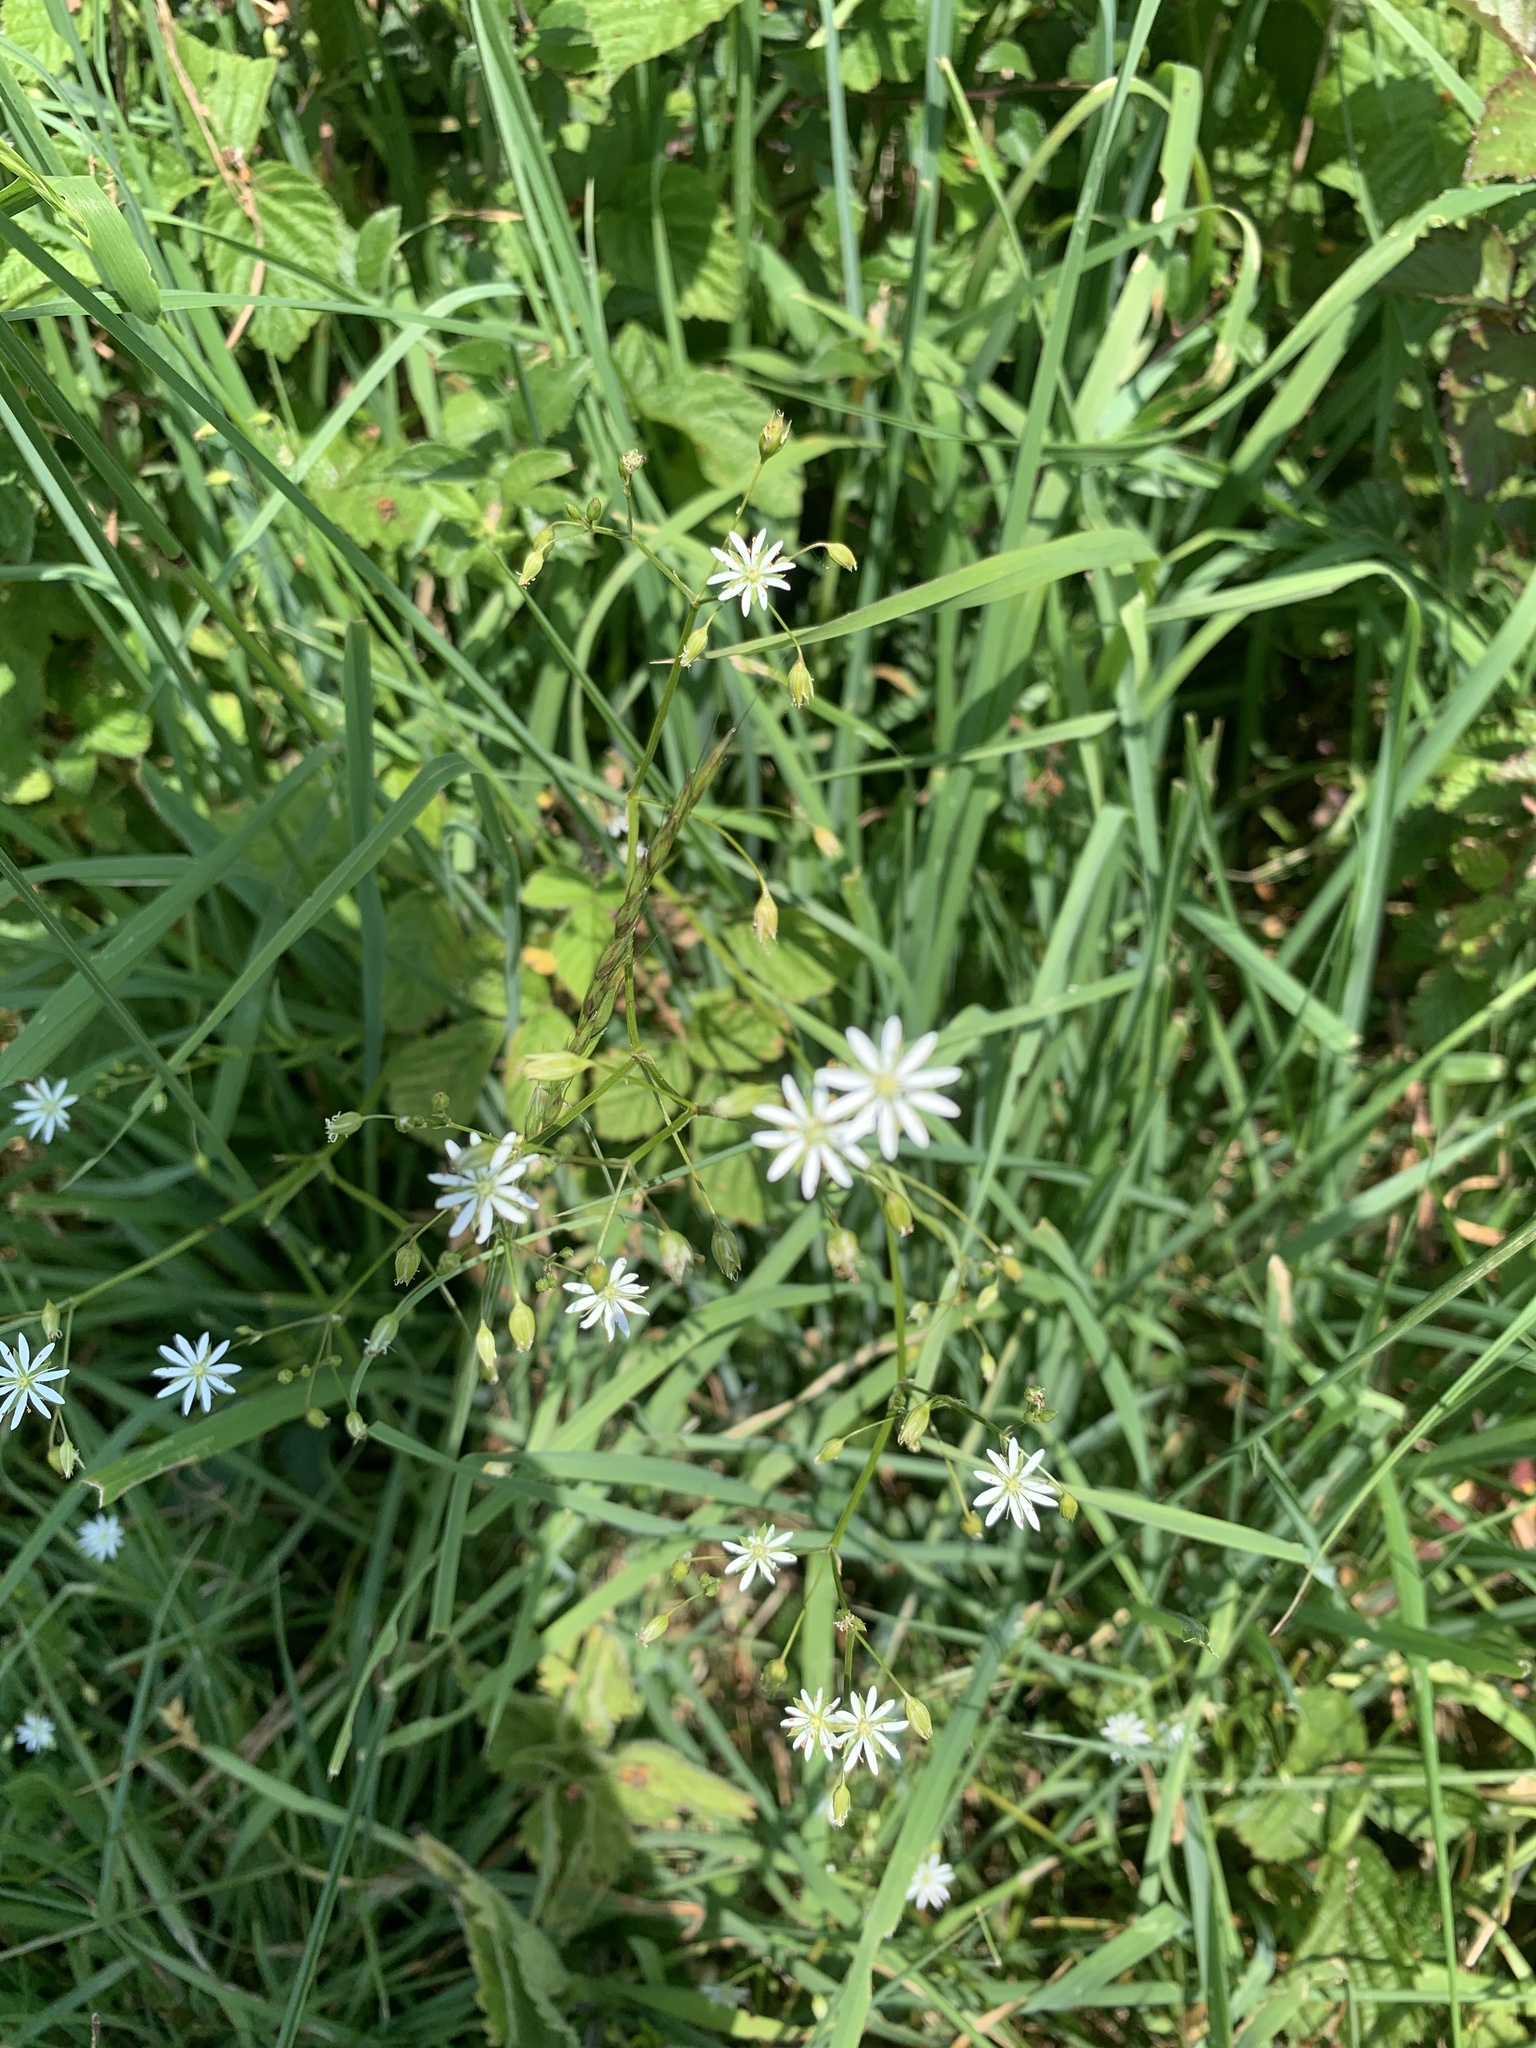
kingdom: Plantae
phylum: Tracheophyta
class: Magnoliopsida
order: Caryophyllales
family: Caryophyllaceae
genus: Stellaria
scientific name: Stellaria graminea
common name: Grass-like starwort
